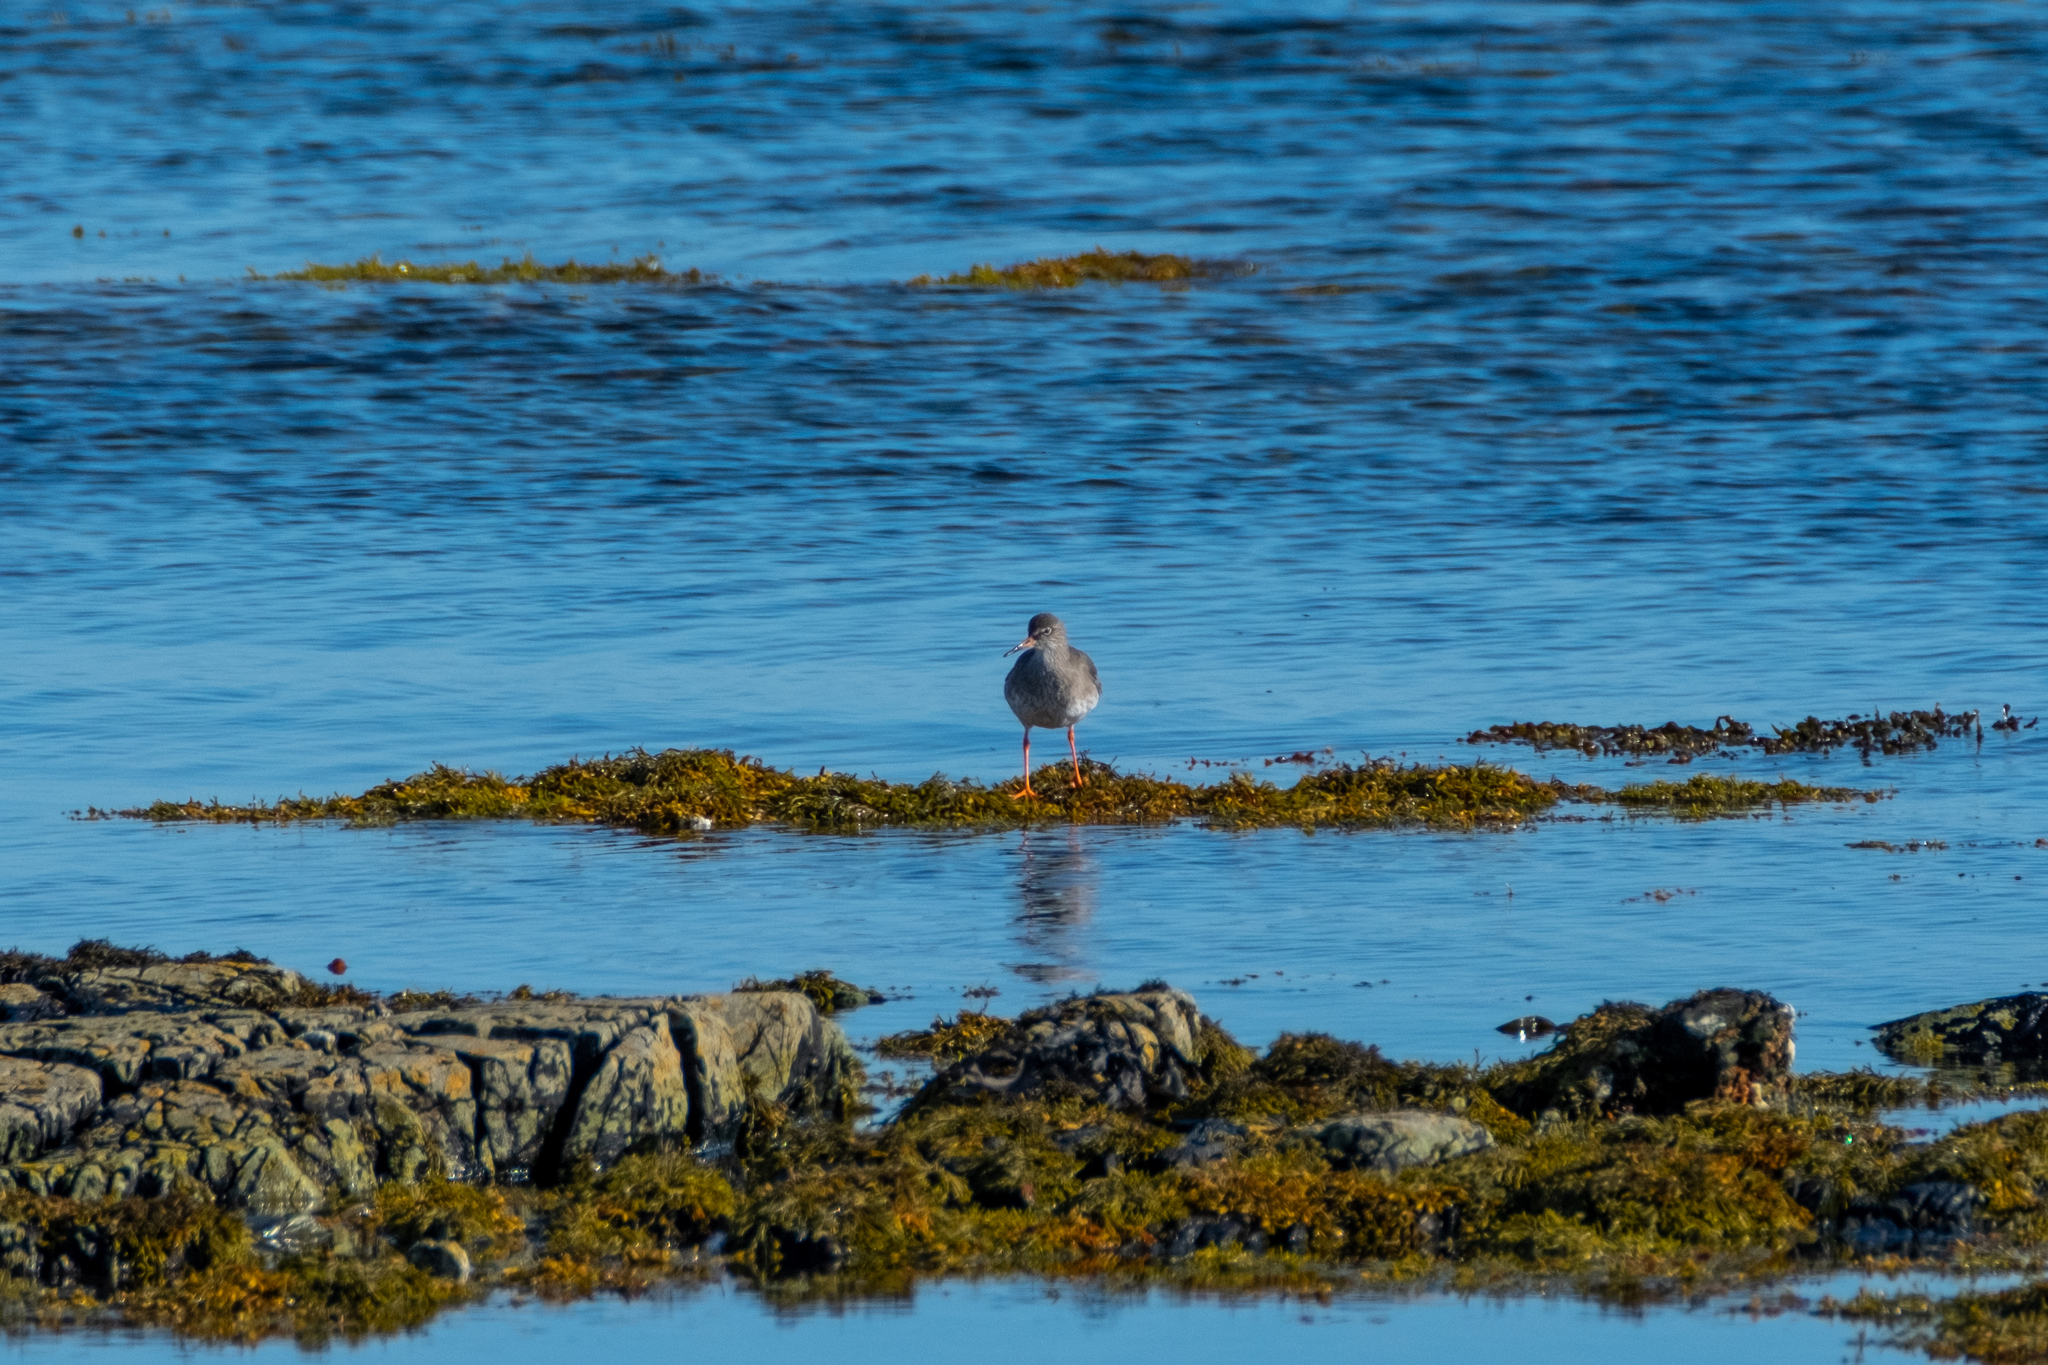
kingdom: Animalia
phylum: Chordata
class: Aves
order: Charadriiformes
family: Scolopacidae
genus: Tringa
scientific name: Tringa totanus
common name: Common redshank
